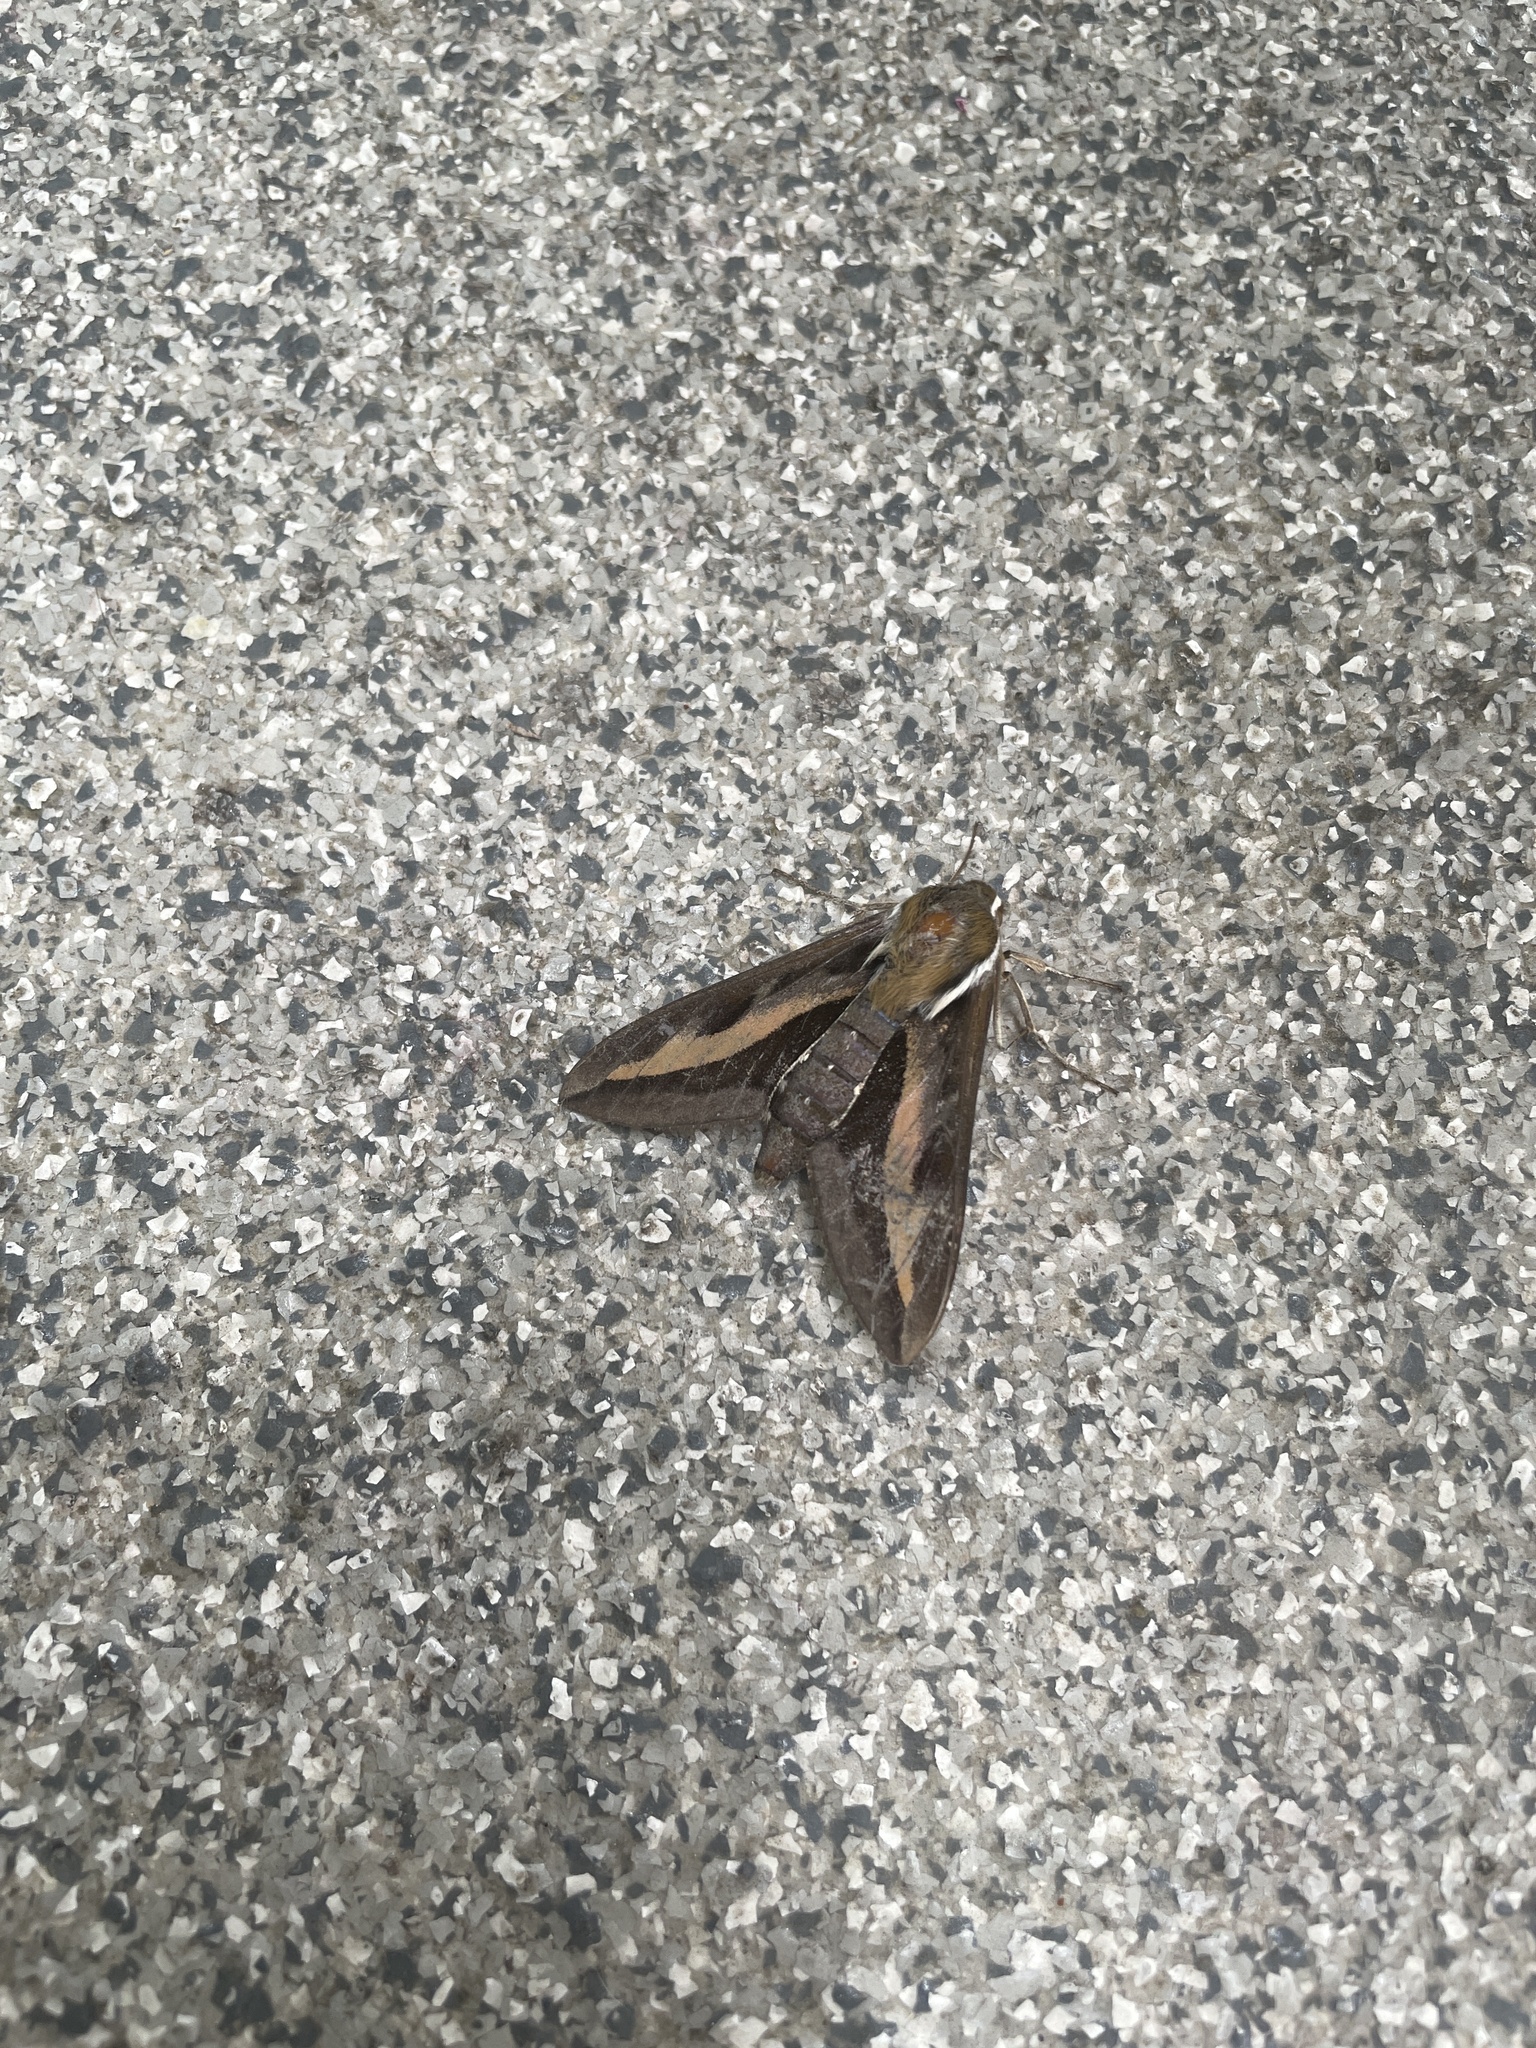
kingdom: Animalia
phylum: Arthropoda
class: Insecta
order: Lepidoptera
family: Sphingidae
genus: Hyles
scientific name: Hyles gallii
